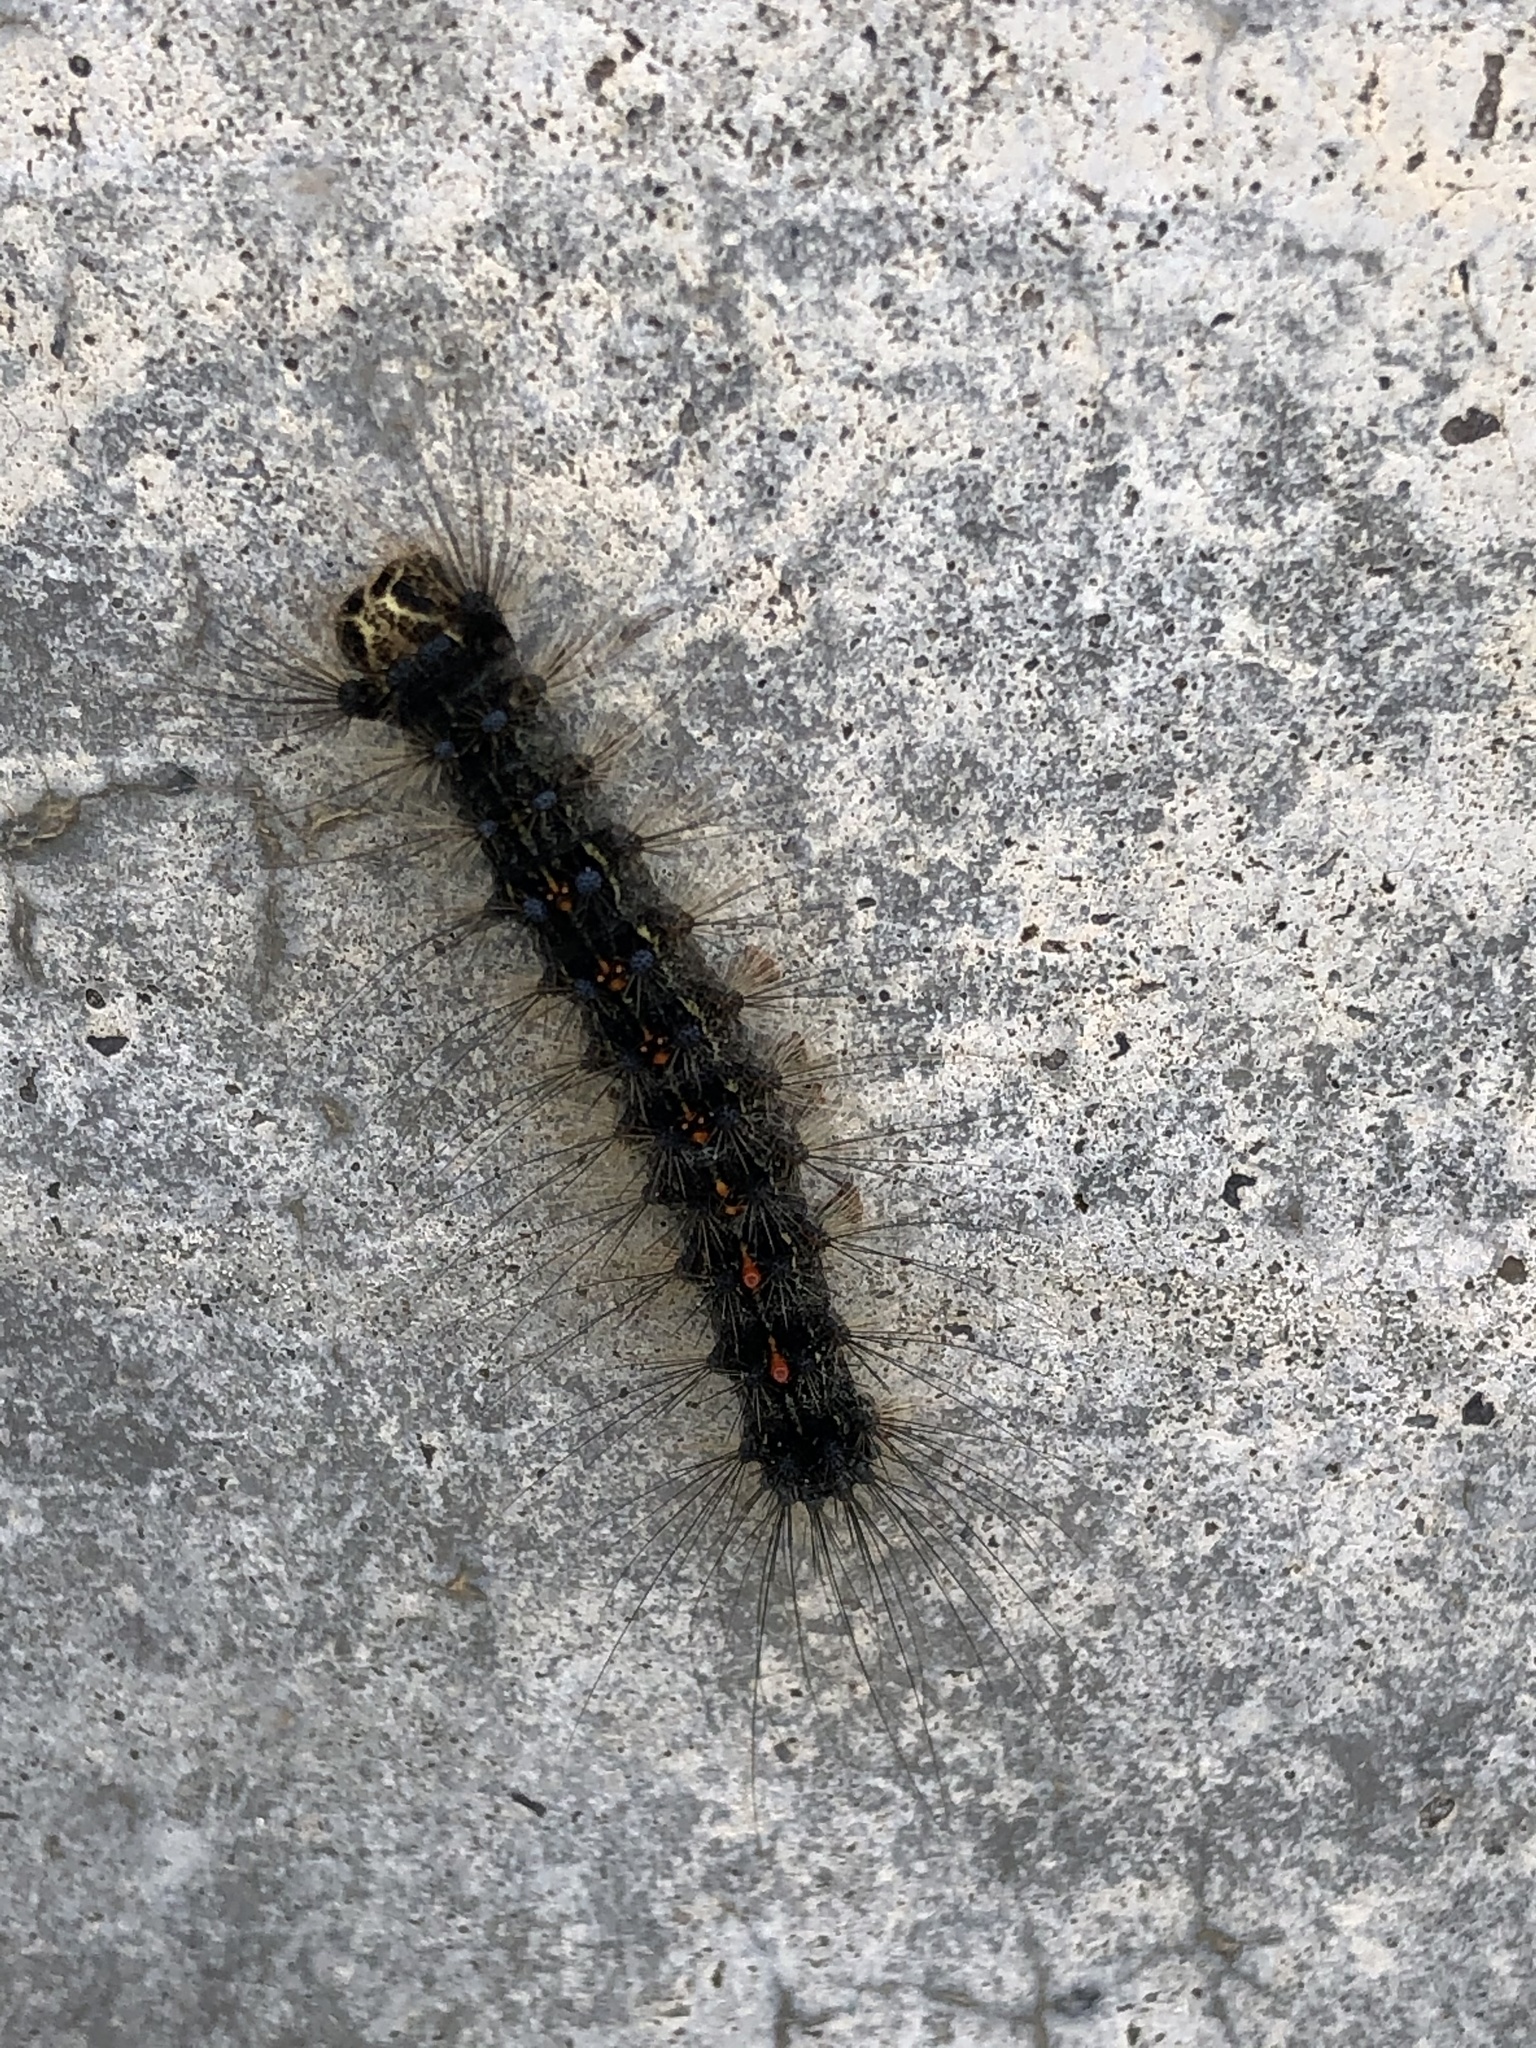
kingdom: Animalia
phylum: Arthropoda
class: Insecta
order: Lepidoptera
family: Erebidae
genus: Lymantria
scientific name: Lymantria dispar
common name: Gypsy moth
